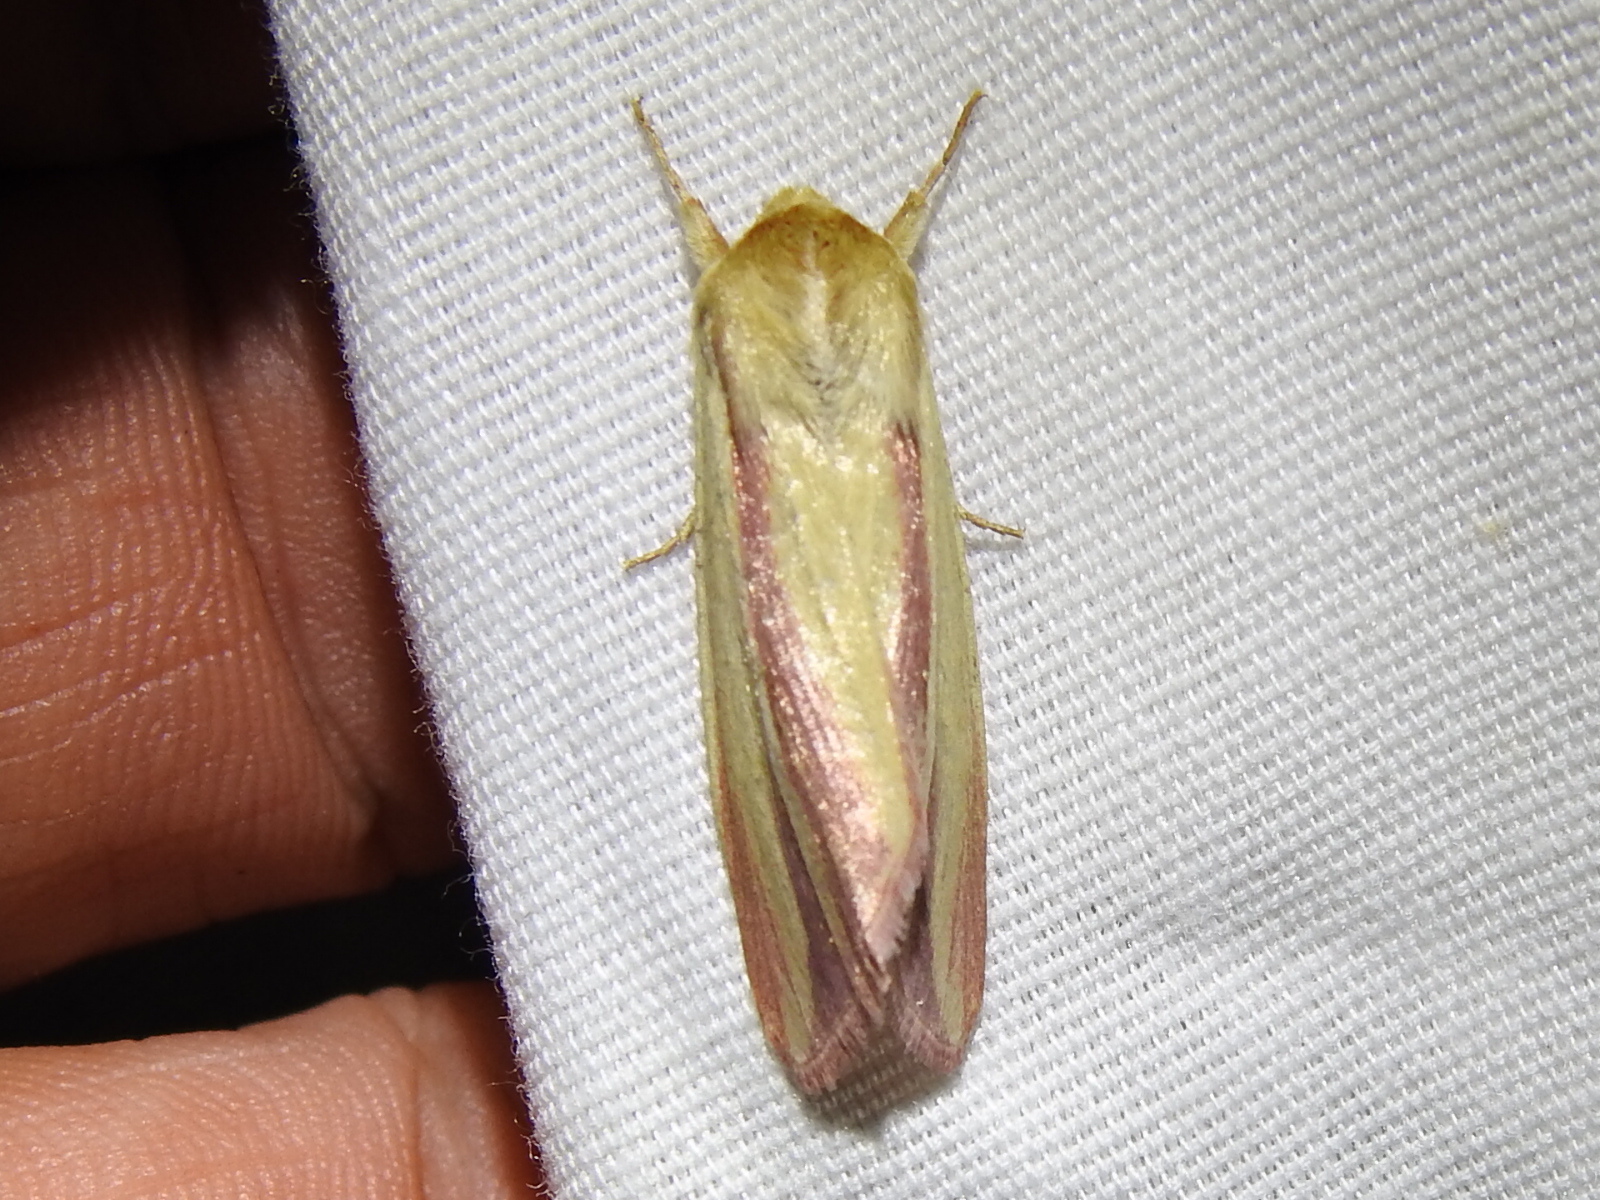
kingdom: Animalia
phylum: Arthropoda
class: Insecta
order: Lepidoptera
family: Noctuidae
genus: Dargida
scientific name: Dargida rubripennis
